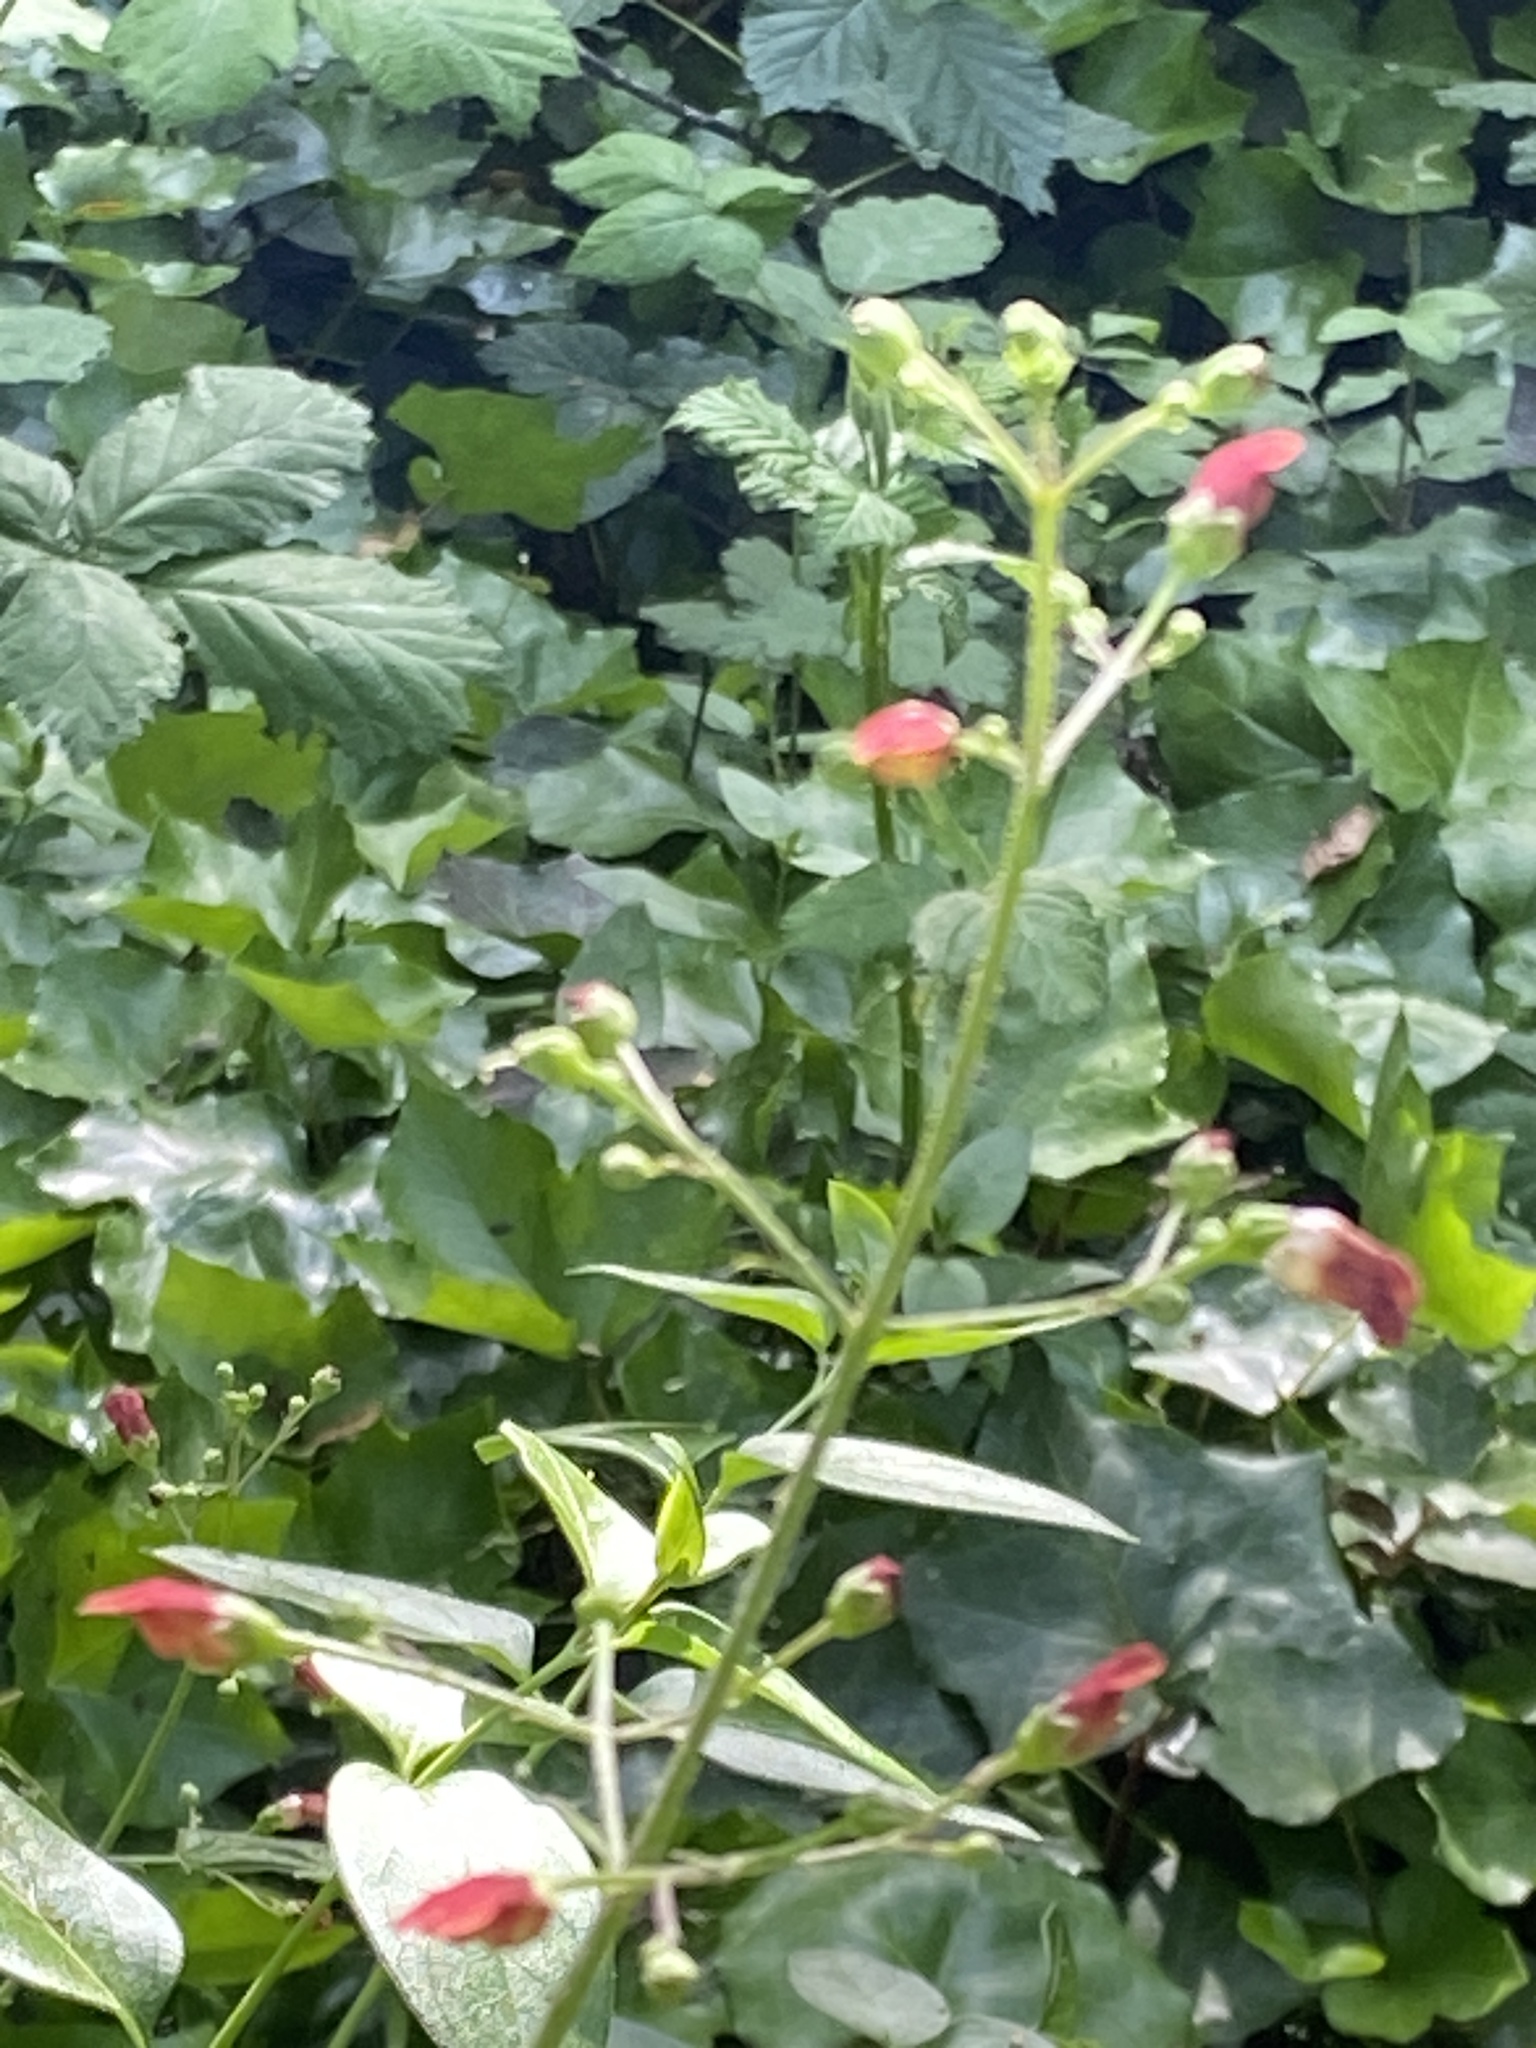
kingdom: Plantae
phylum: Tracheophyta
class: Magnoliopsida
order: Lamiales
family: Scrophulariaceae
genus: Scrophularia
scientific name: Scrophularia californica
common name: California figwort
